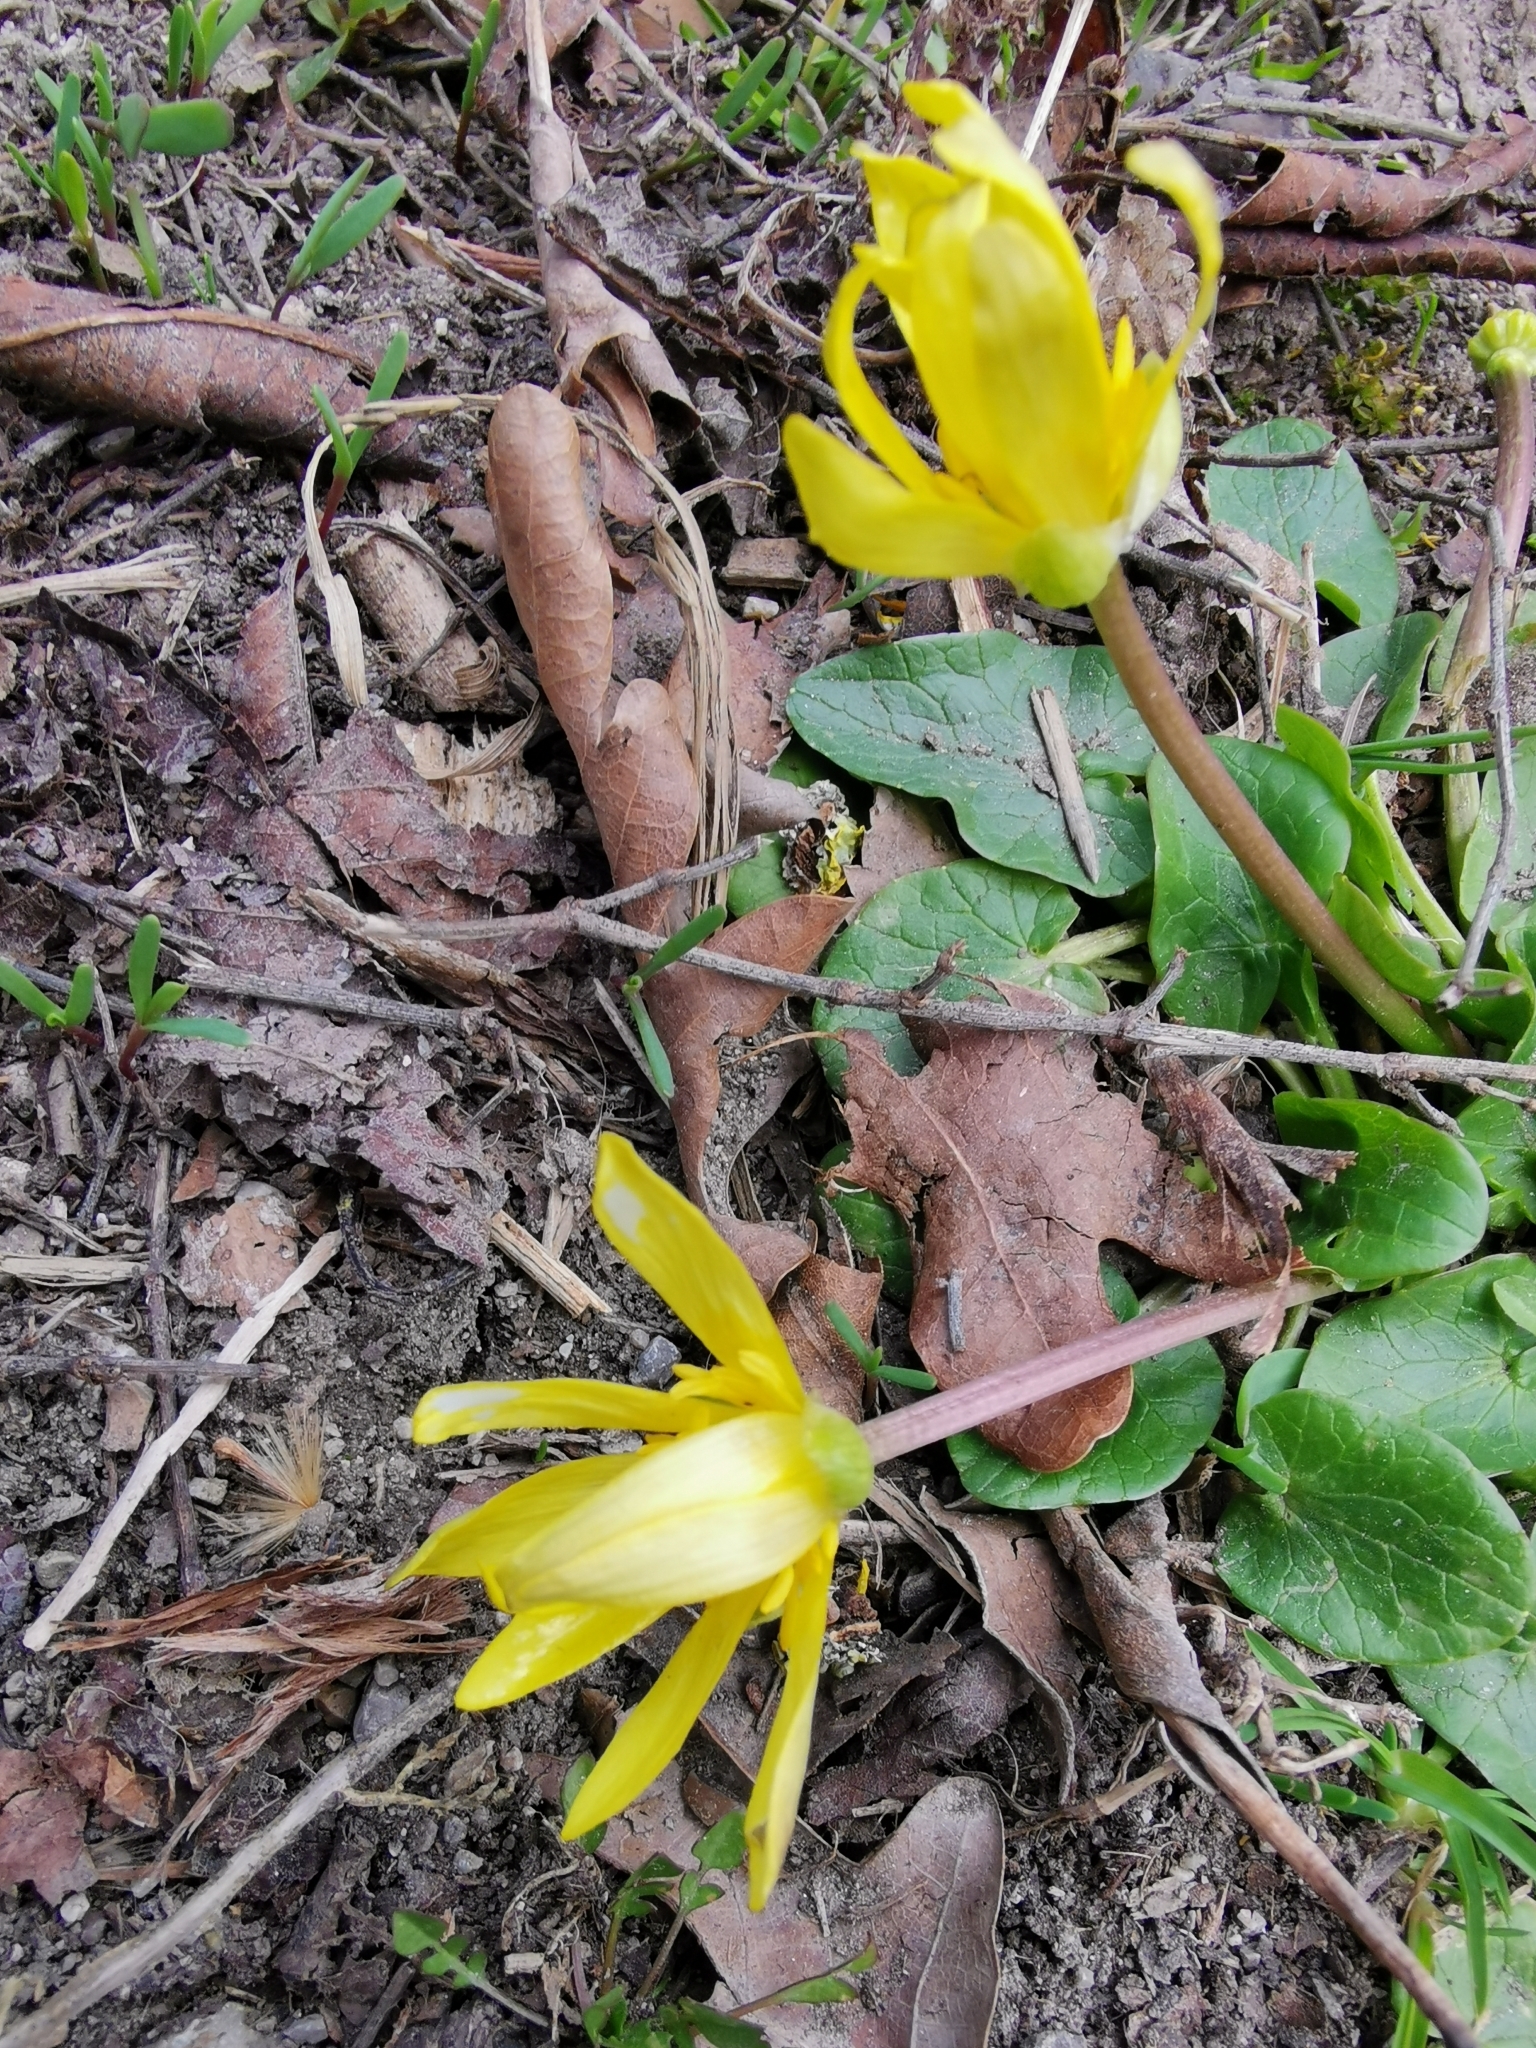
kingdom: Plantae
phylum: Tracheophyta
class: Magnoliopsida
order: Ranunculales
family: Ranunculaceae
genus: Ficaria
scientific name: Ficaria verna
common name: Lesser celandine
